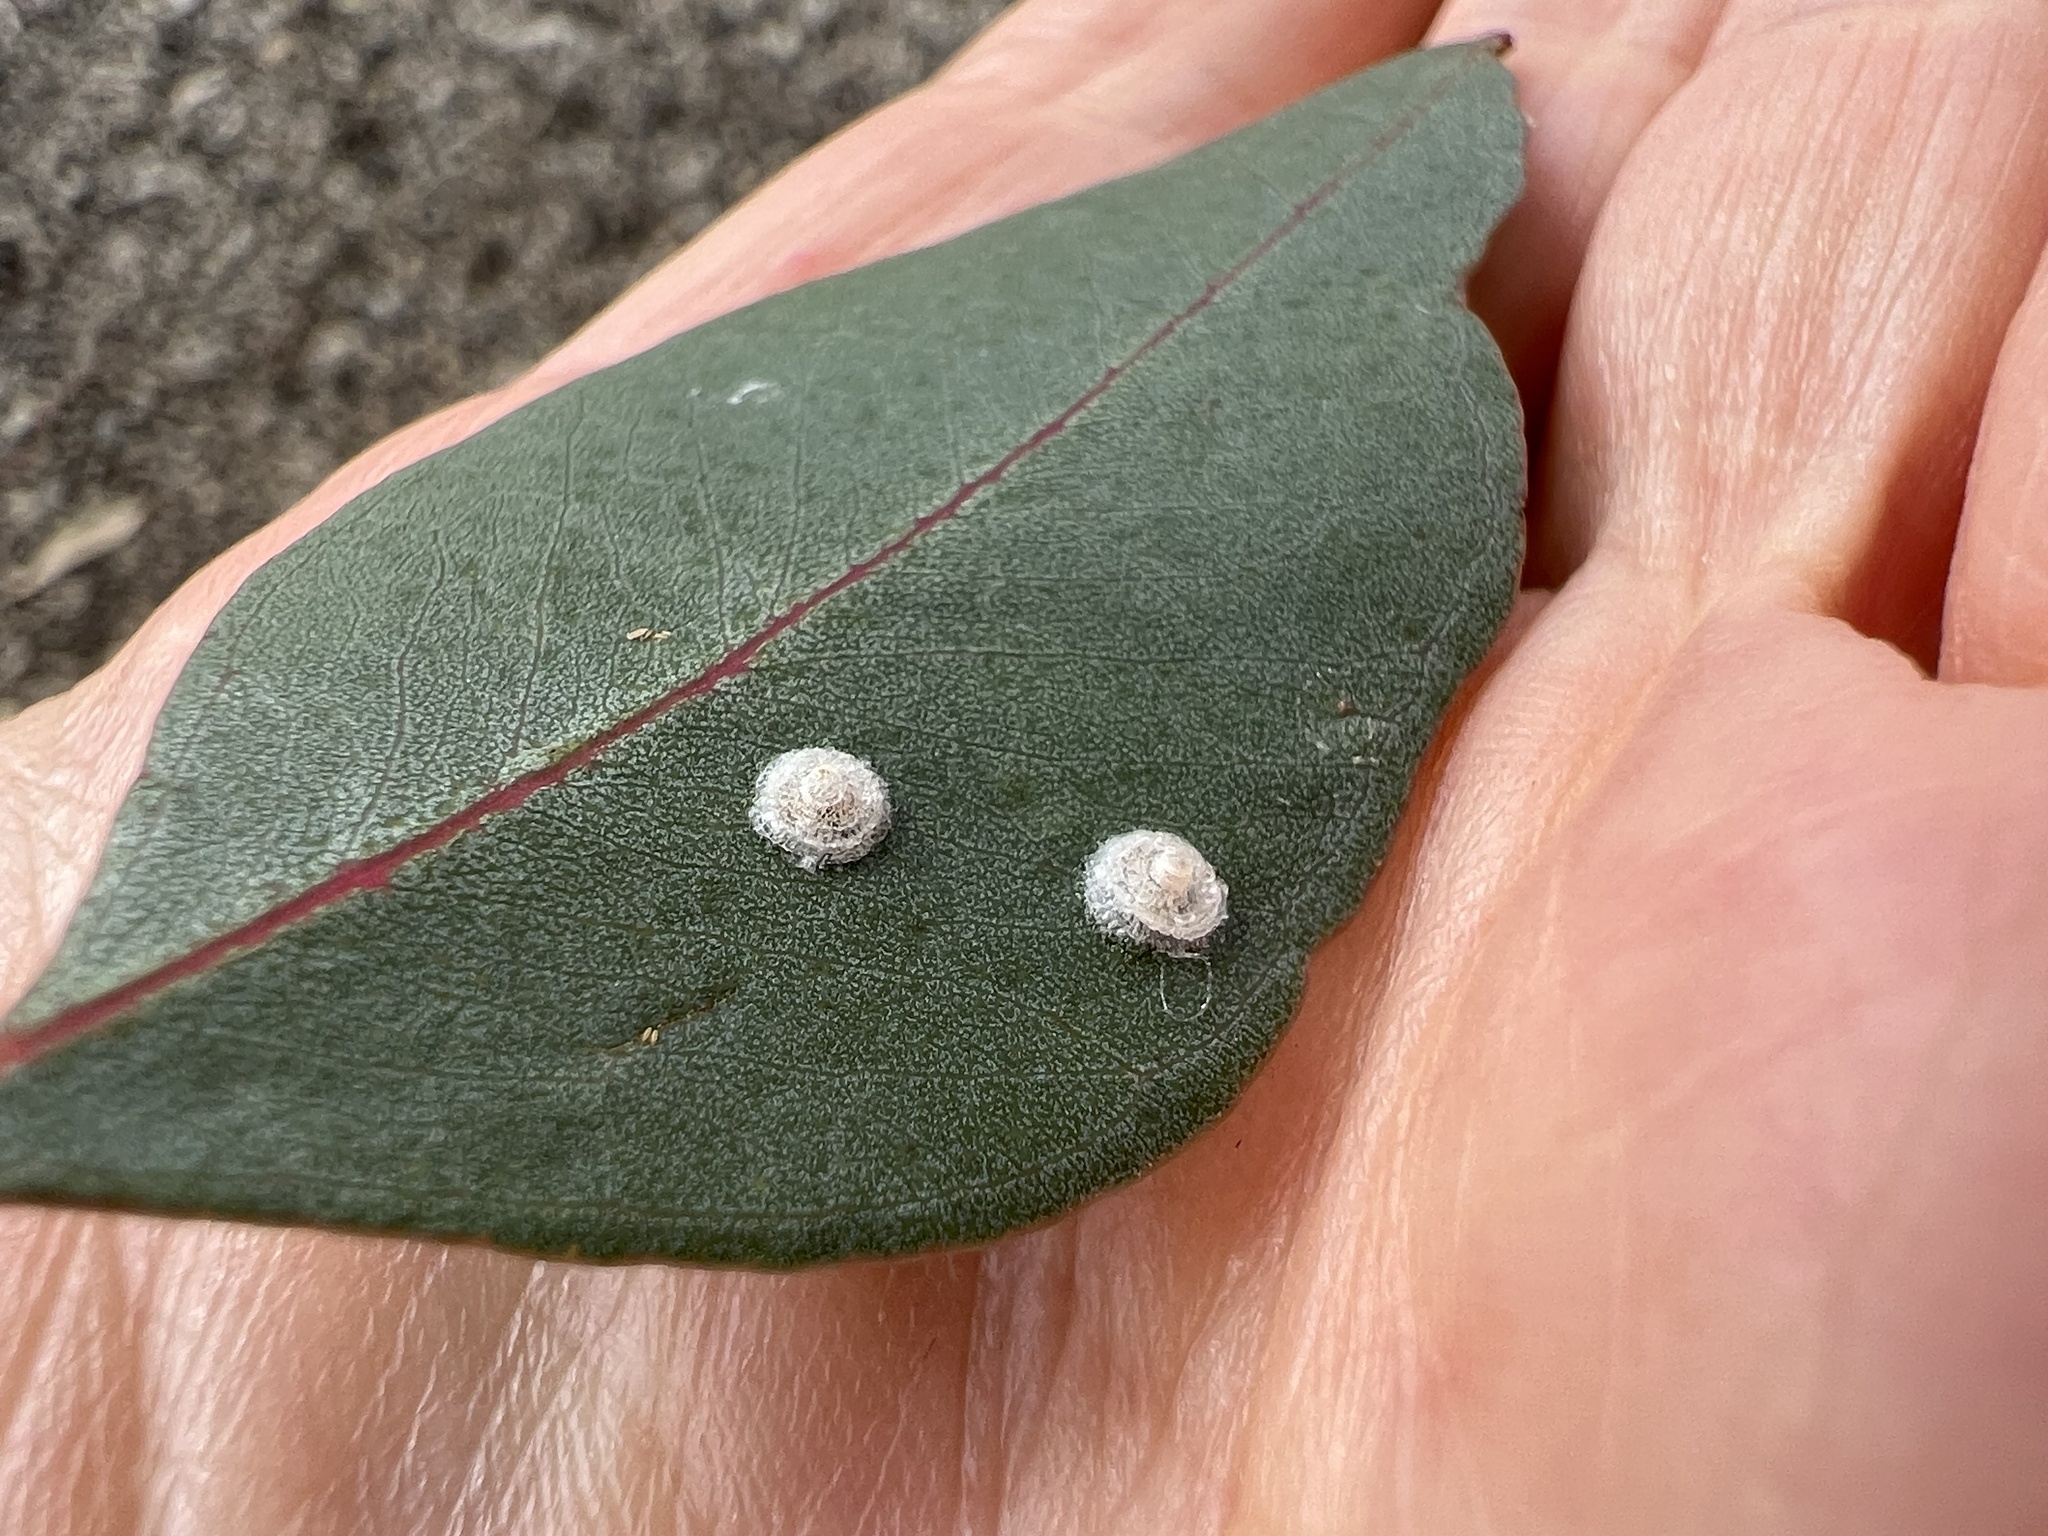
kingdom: Animalia
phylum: Arthropoda
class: Insecta
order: Hemiptera
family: Aphalaridae
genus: Glycaspis
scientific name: Glycaspis brimblecombei
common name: Red gum lerp psyllid
